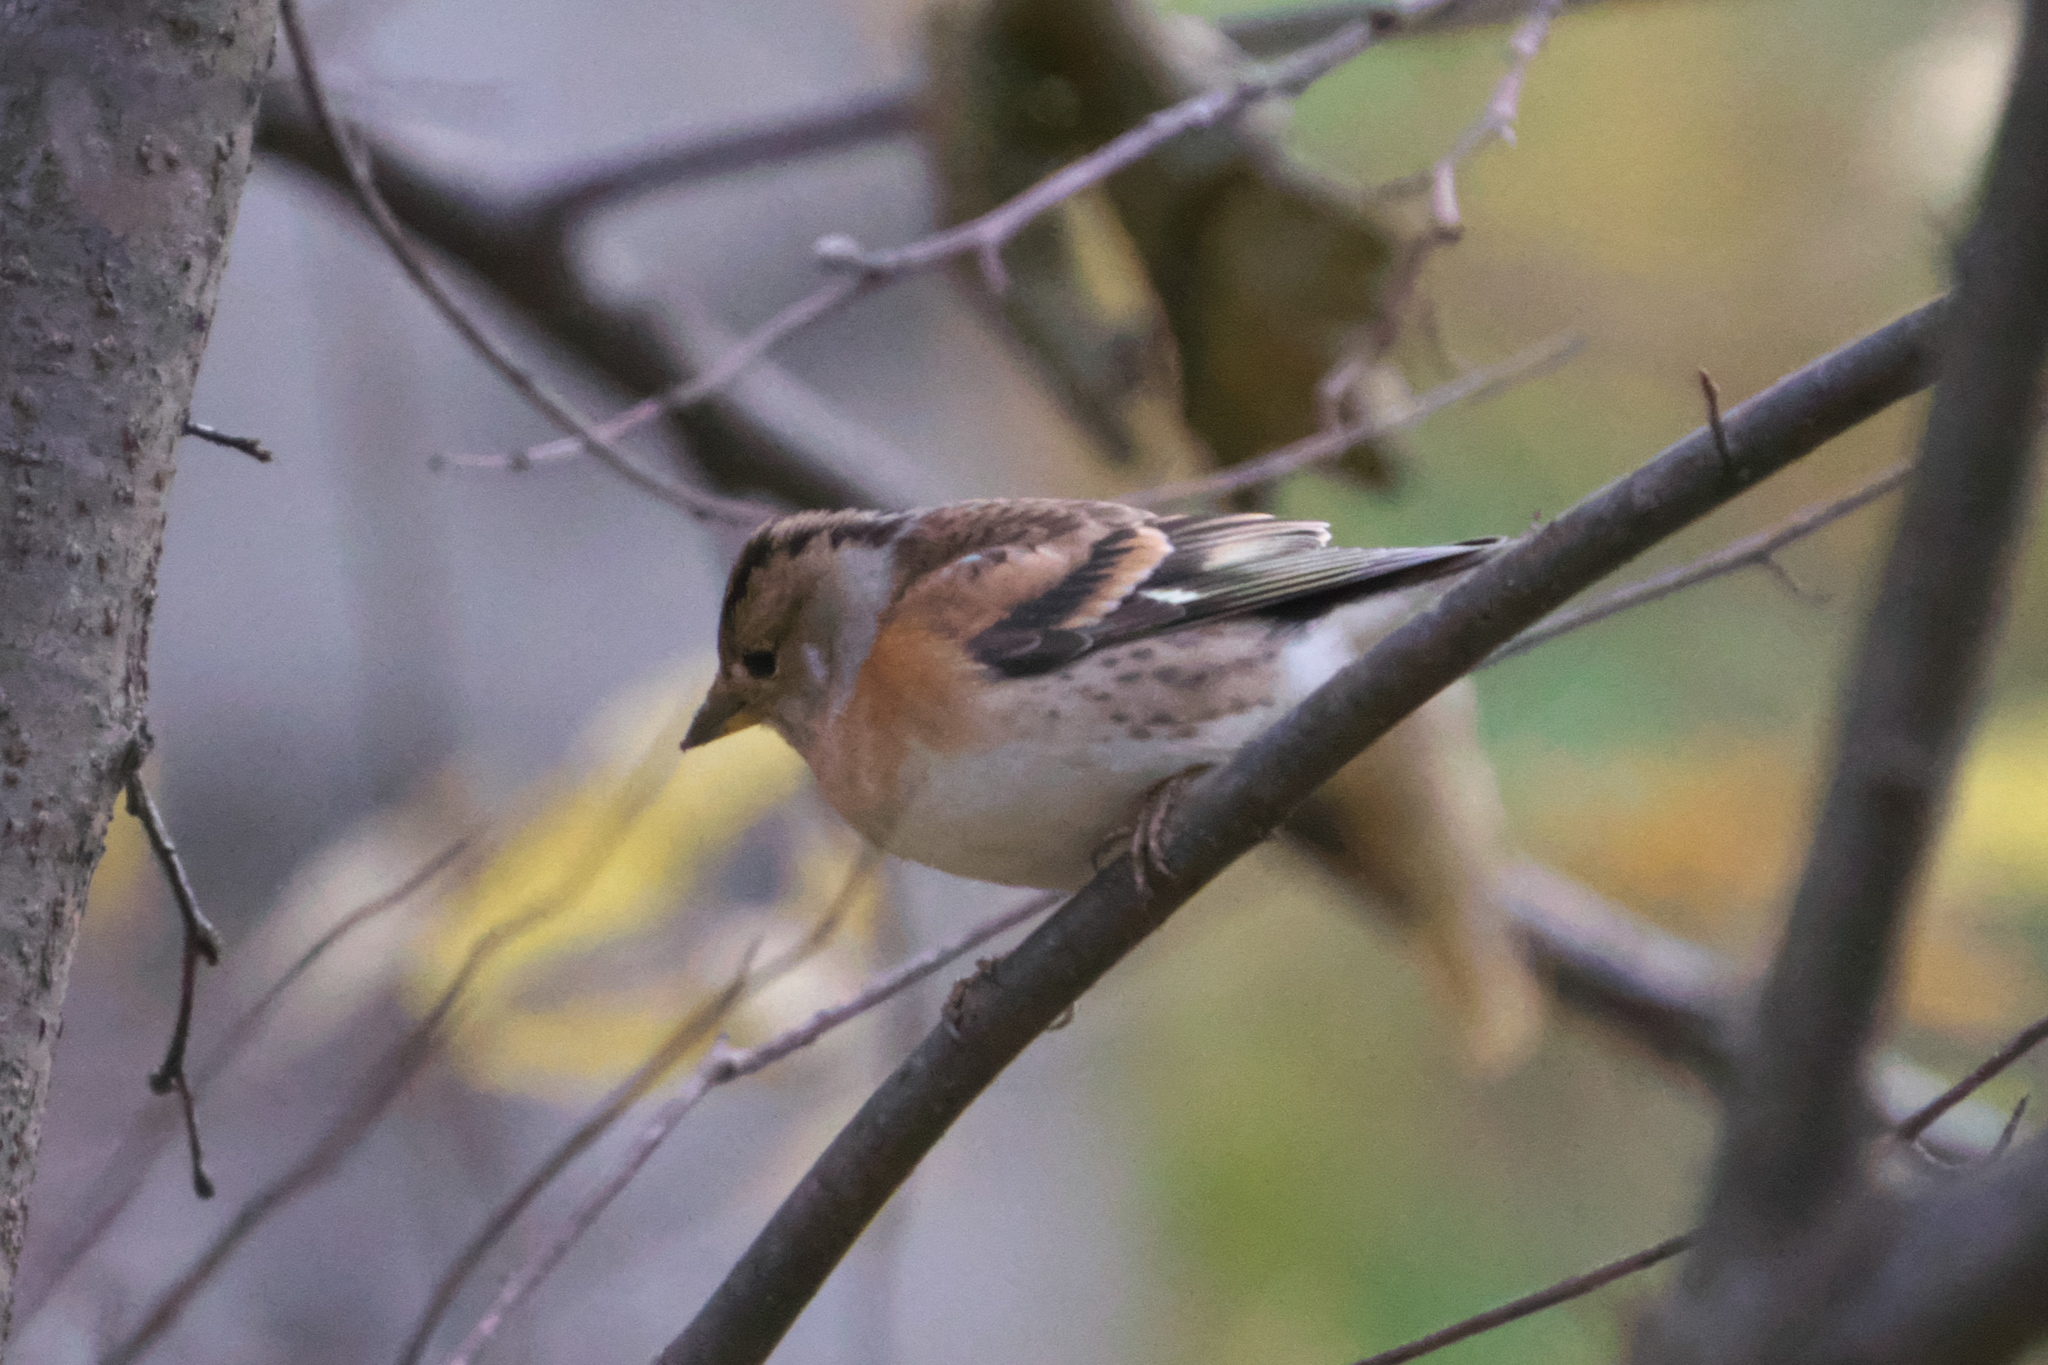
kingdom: Animalia
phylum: Chordata
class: Aves
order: Passeriformes
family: Fringillidae
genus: Fringilla
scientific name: Fringilla montifringilla
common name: Brambling
